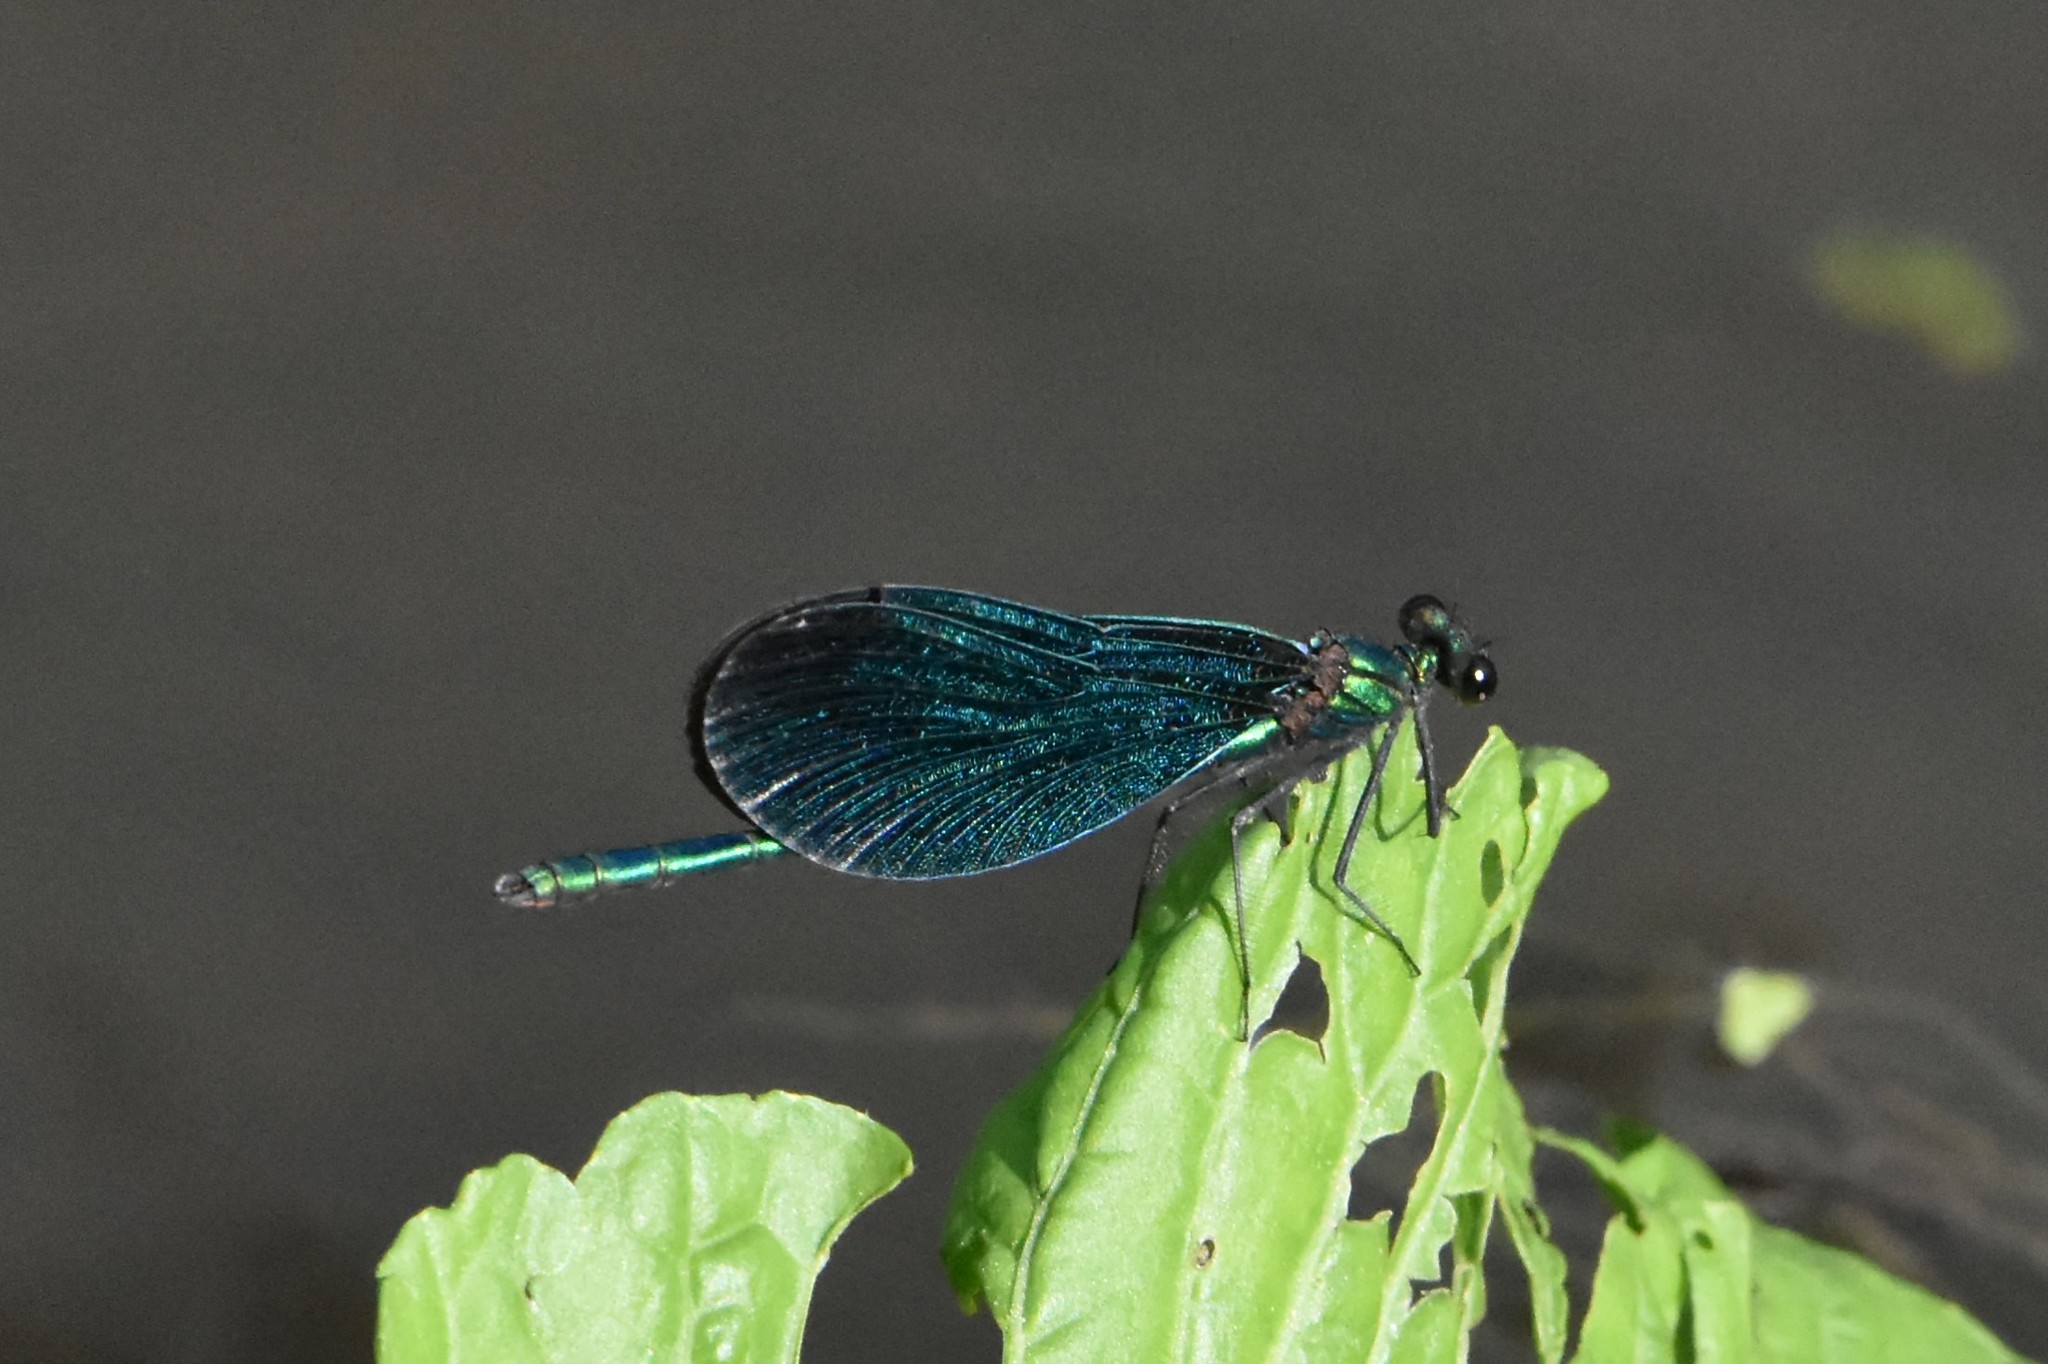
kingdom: Animalia
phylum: Arthropoda
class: Insecta
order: Odonata
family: Calopterygidae
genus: Calopteryx
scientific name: Calopteryx virgo
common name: Beautiful demoiselle
